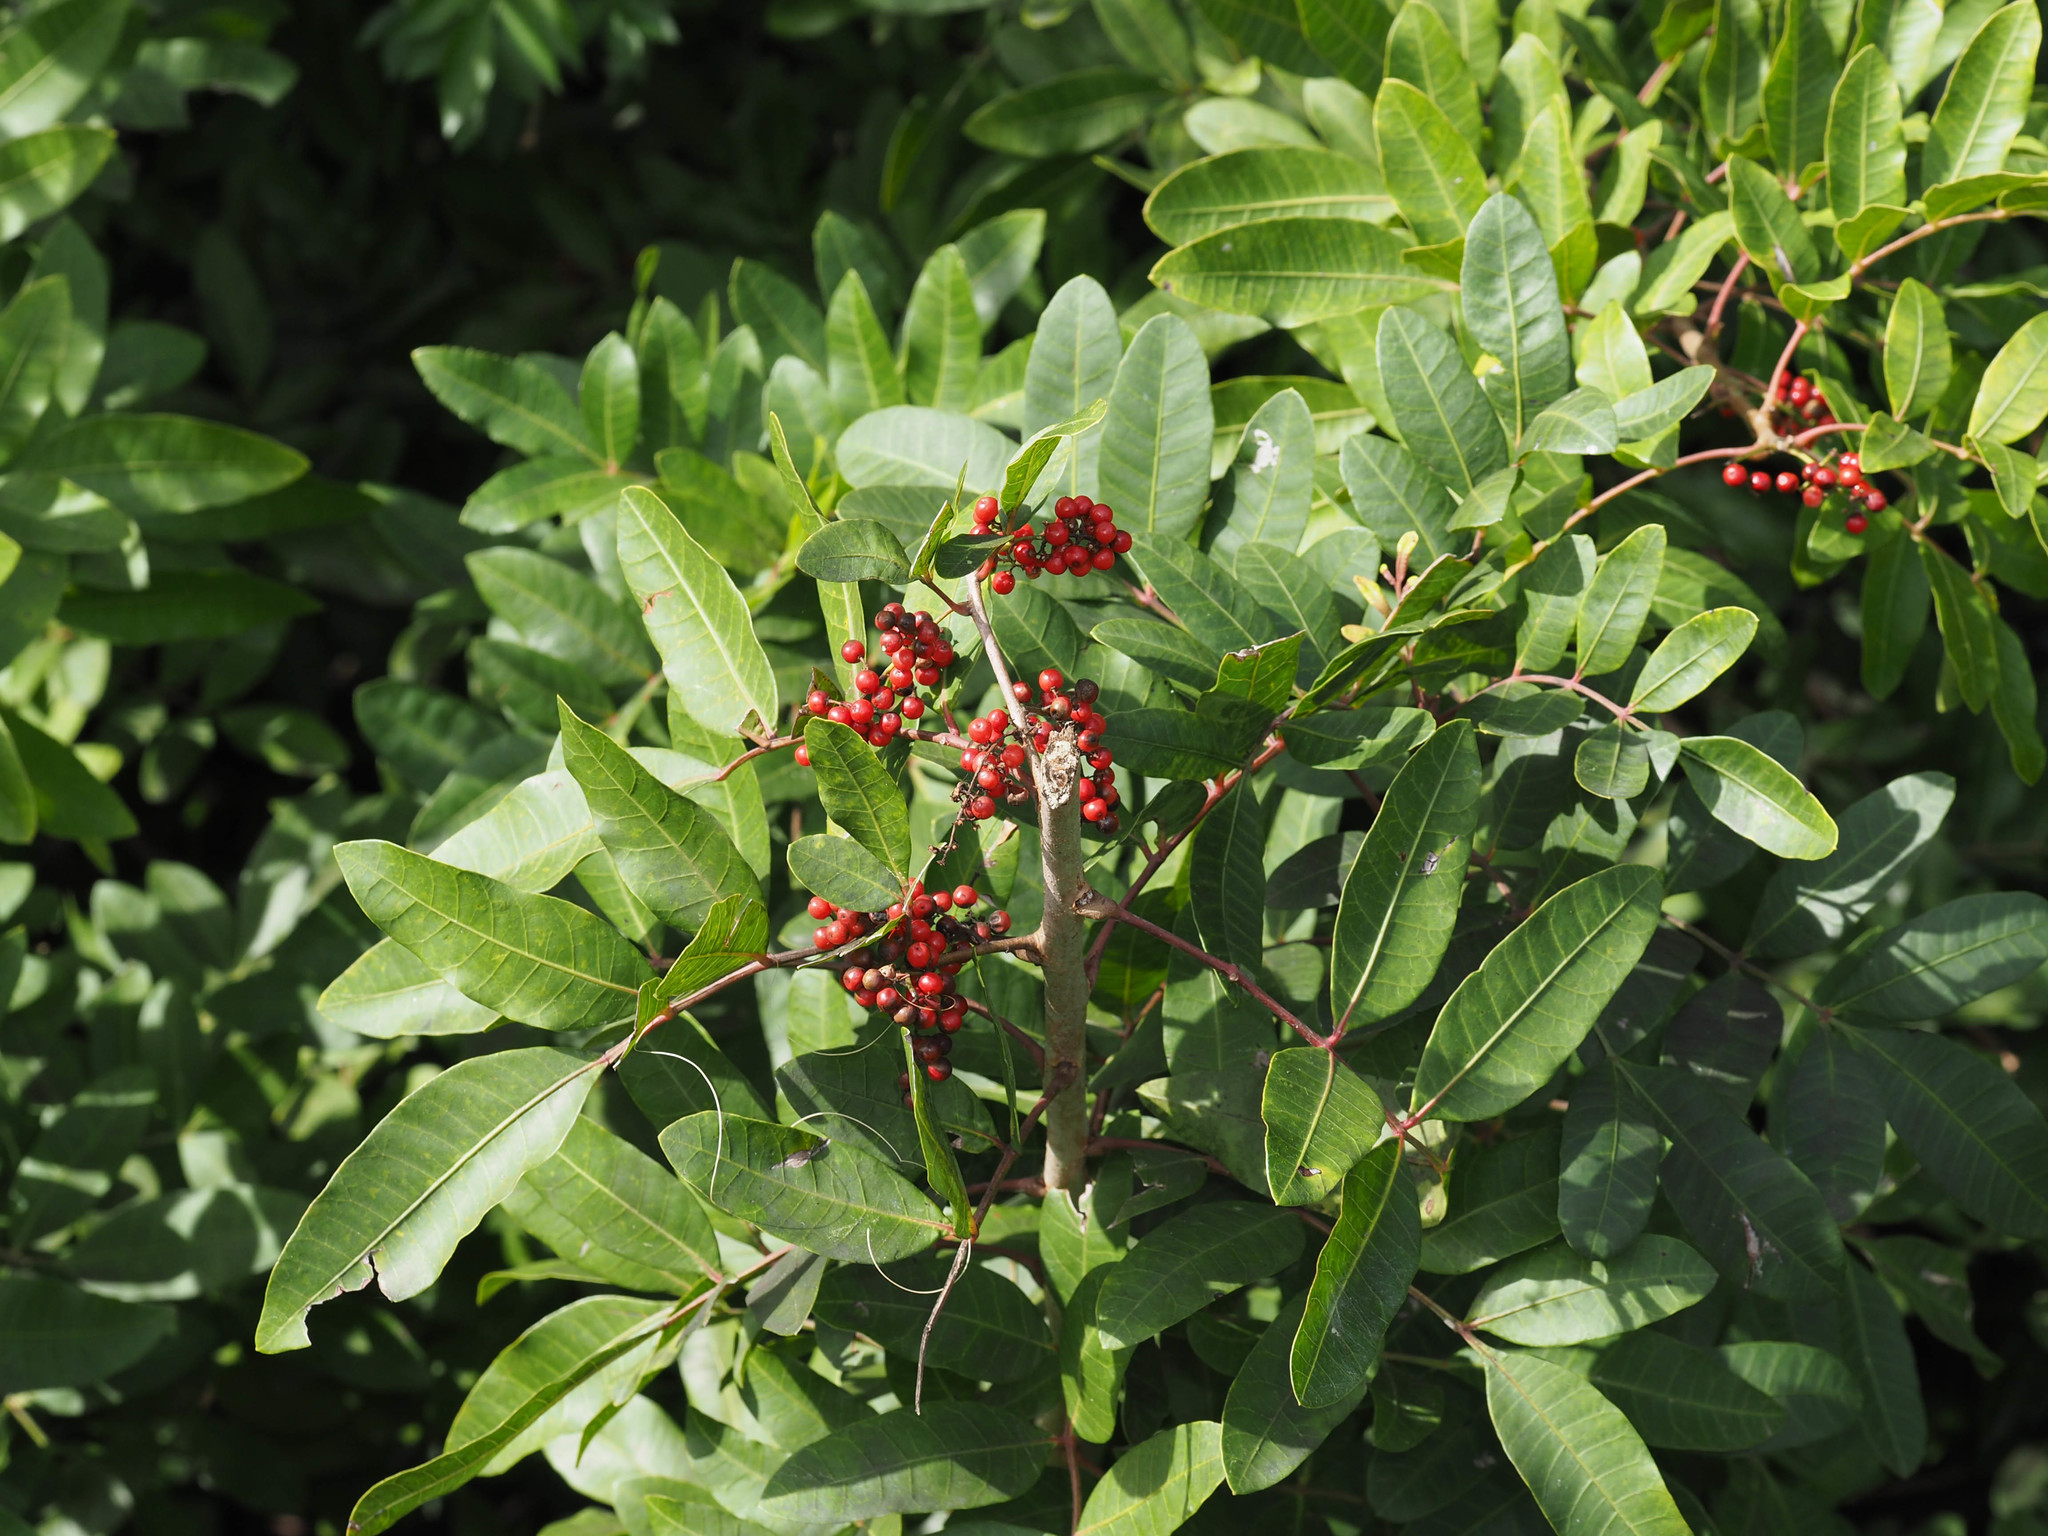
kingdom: Plantae
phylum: Tracheophyta
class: Magnoliopsida
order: Sapindales
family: Anacardiaceae
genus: Schinus
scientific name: Schinus terebinthifolia
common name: Brazilian peppertree
